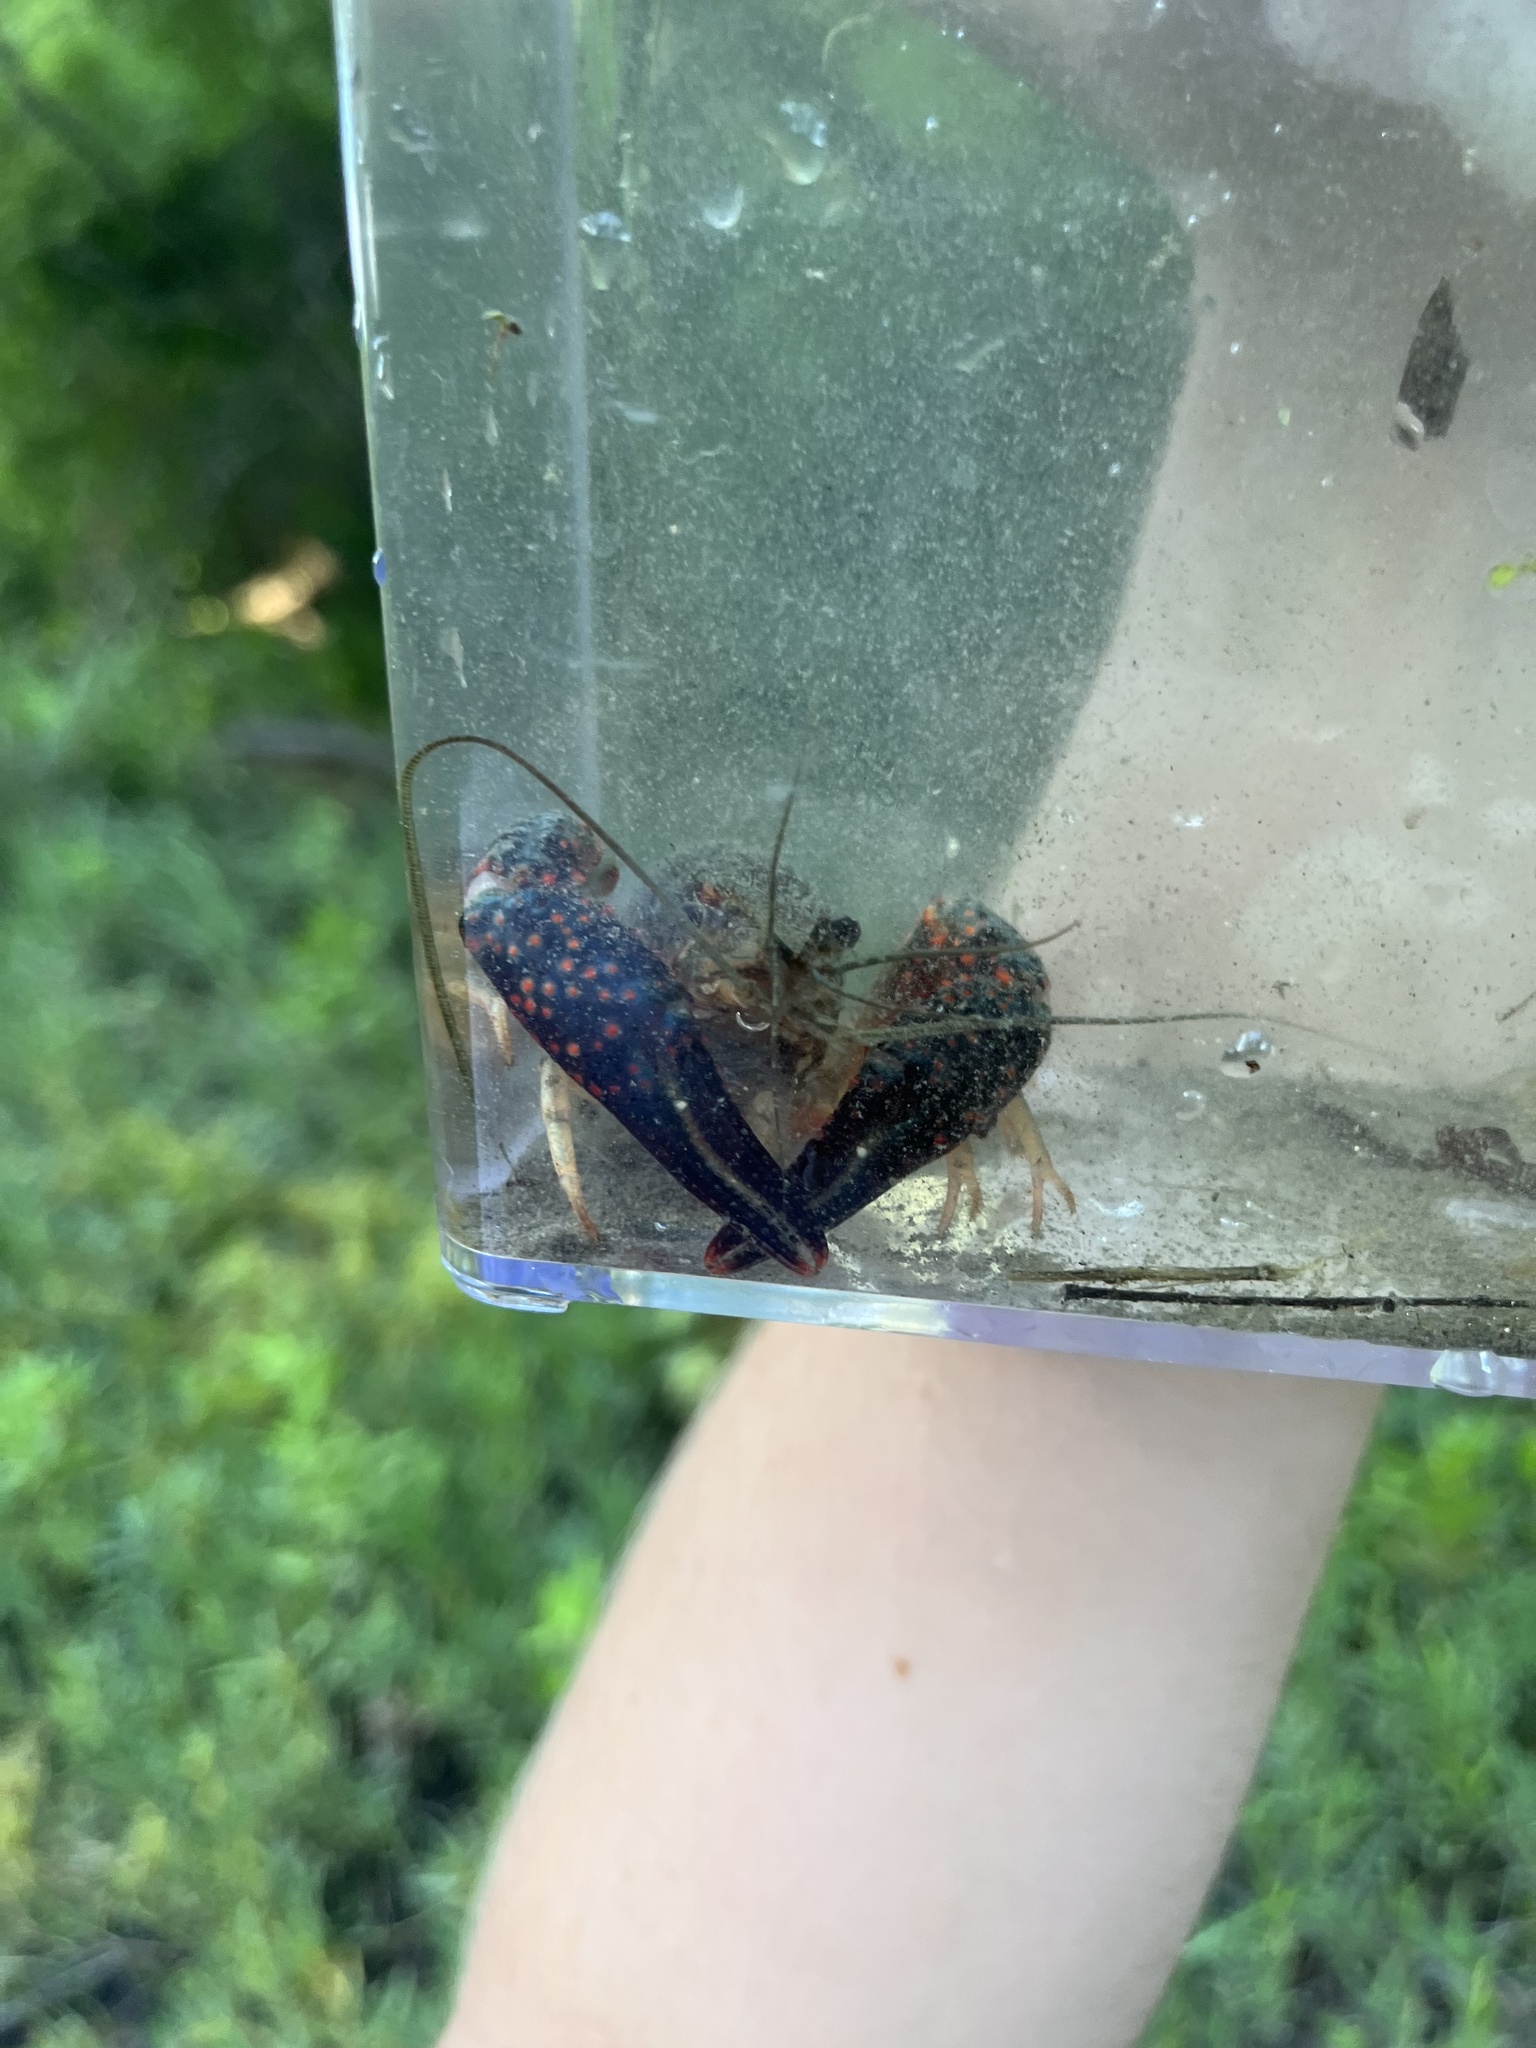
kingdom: Animalia
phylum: Arthropoda
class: Malacostraca
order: Decapoda
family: Cambaridae
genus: Procambarus
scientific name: Procambarus clarkii
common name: Red swamp crayfish
